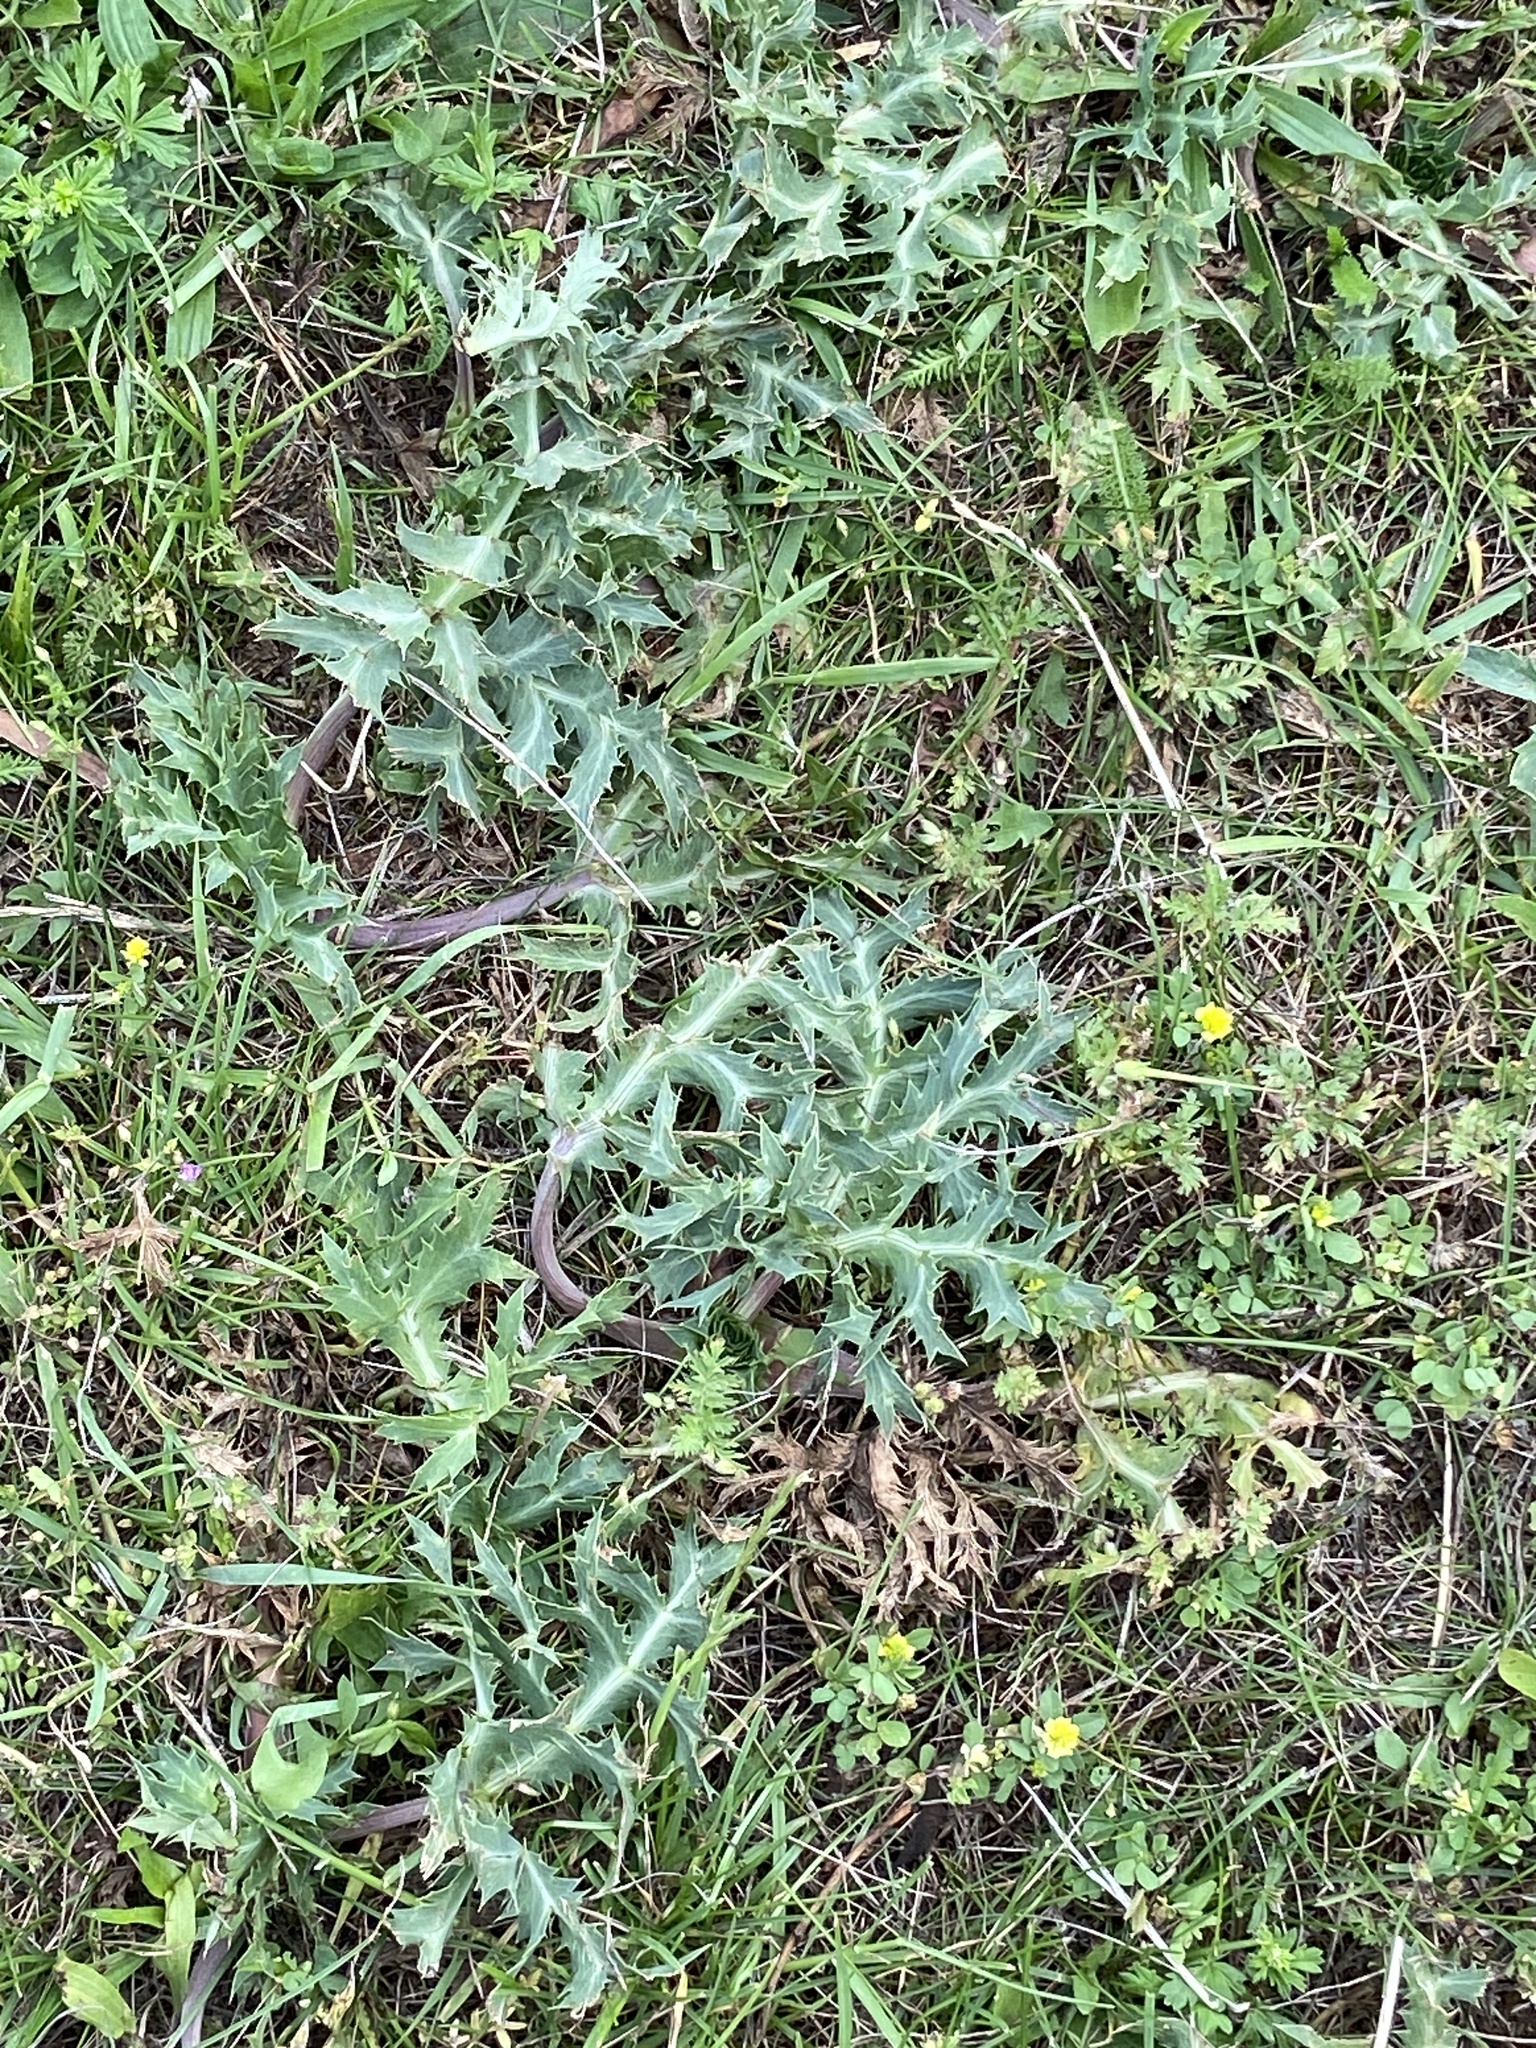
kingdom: Plantae
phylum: Tracheophyta
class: Magnoliopsida
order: Apiales
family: Apiaceae
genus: Eryngium
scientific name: Eryngium campestre
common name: Field eryngo
